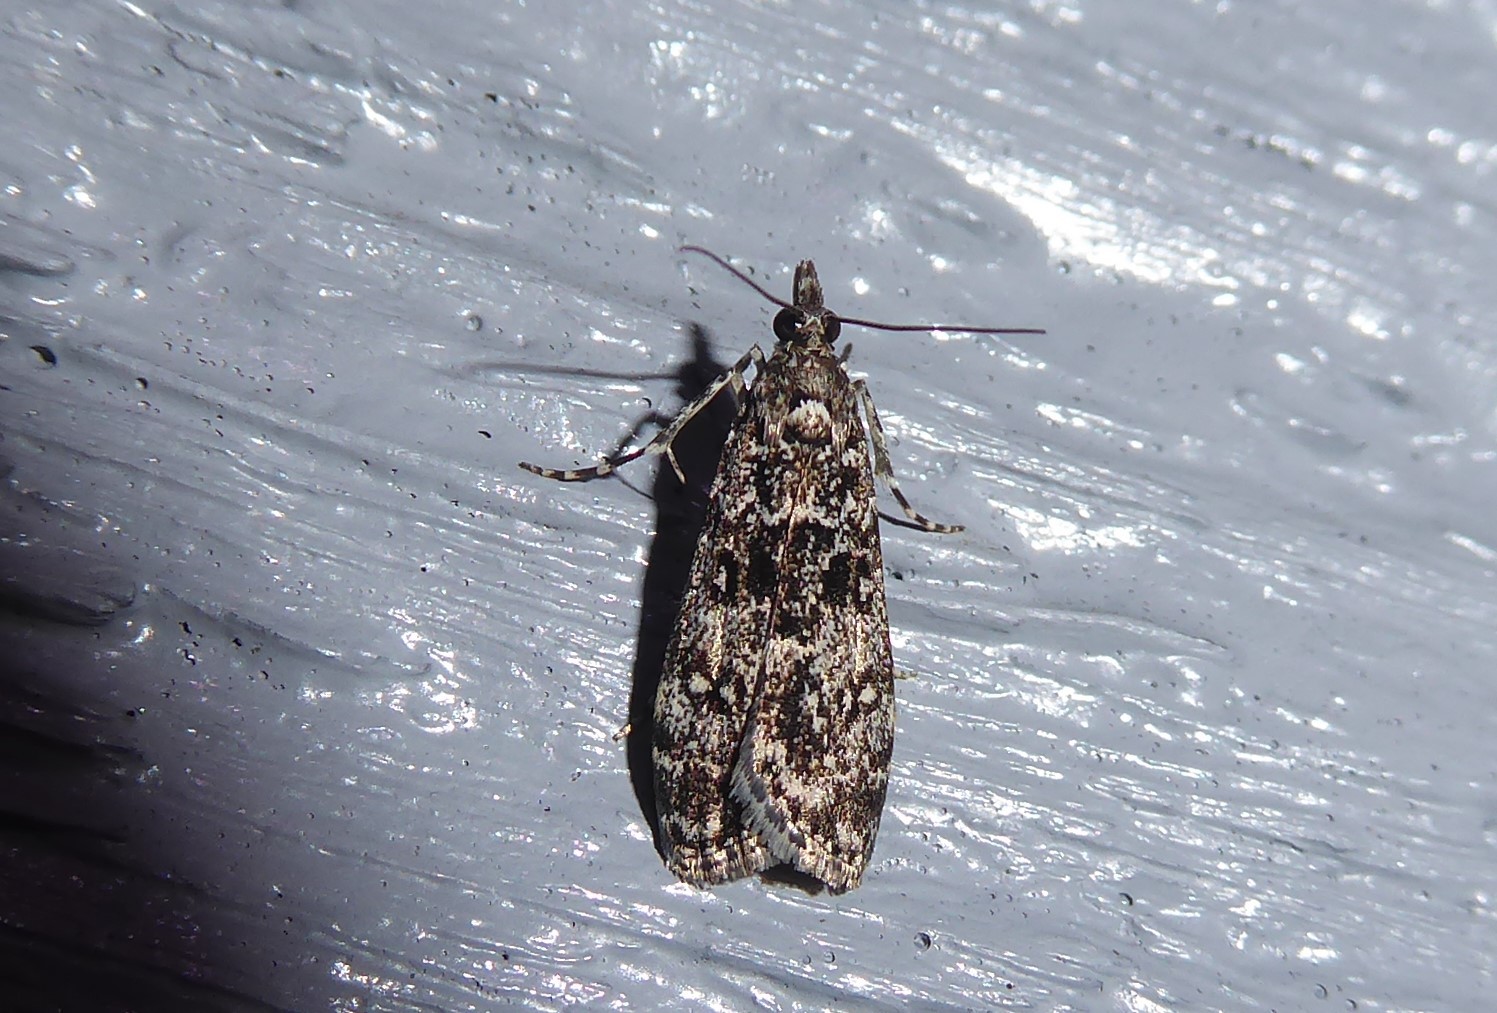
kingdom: Animalia
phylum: Arthropoda
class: Insecta
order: Lepidoptera
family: Crambidae
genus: Eudonia
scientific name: Eudonia philerga
